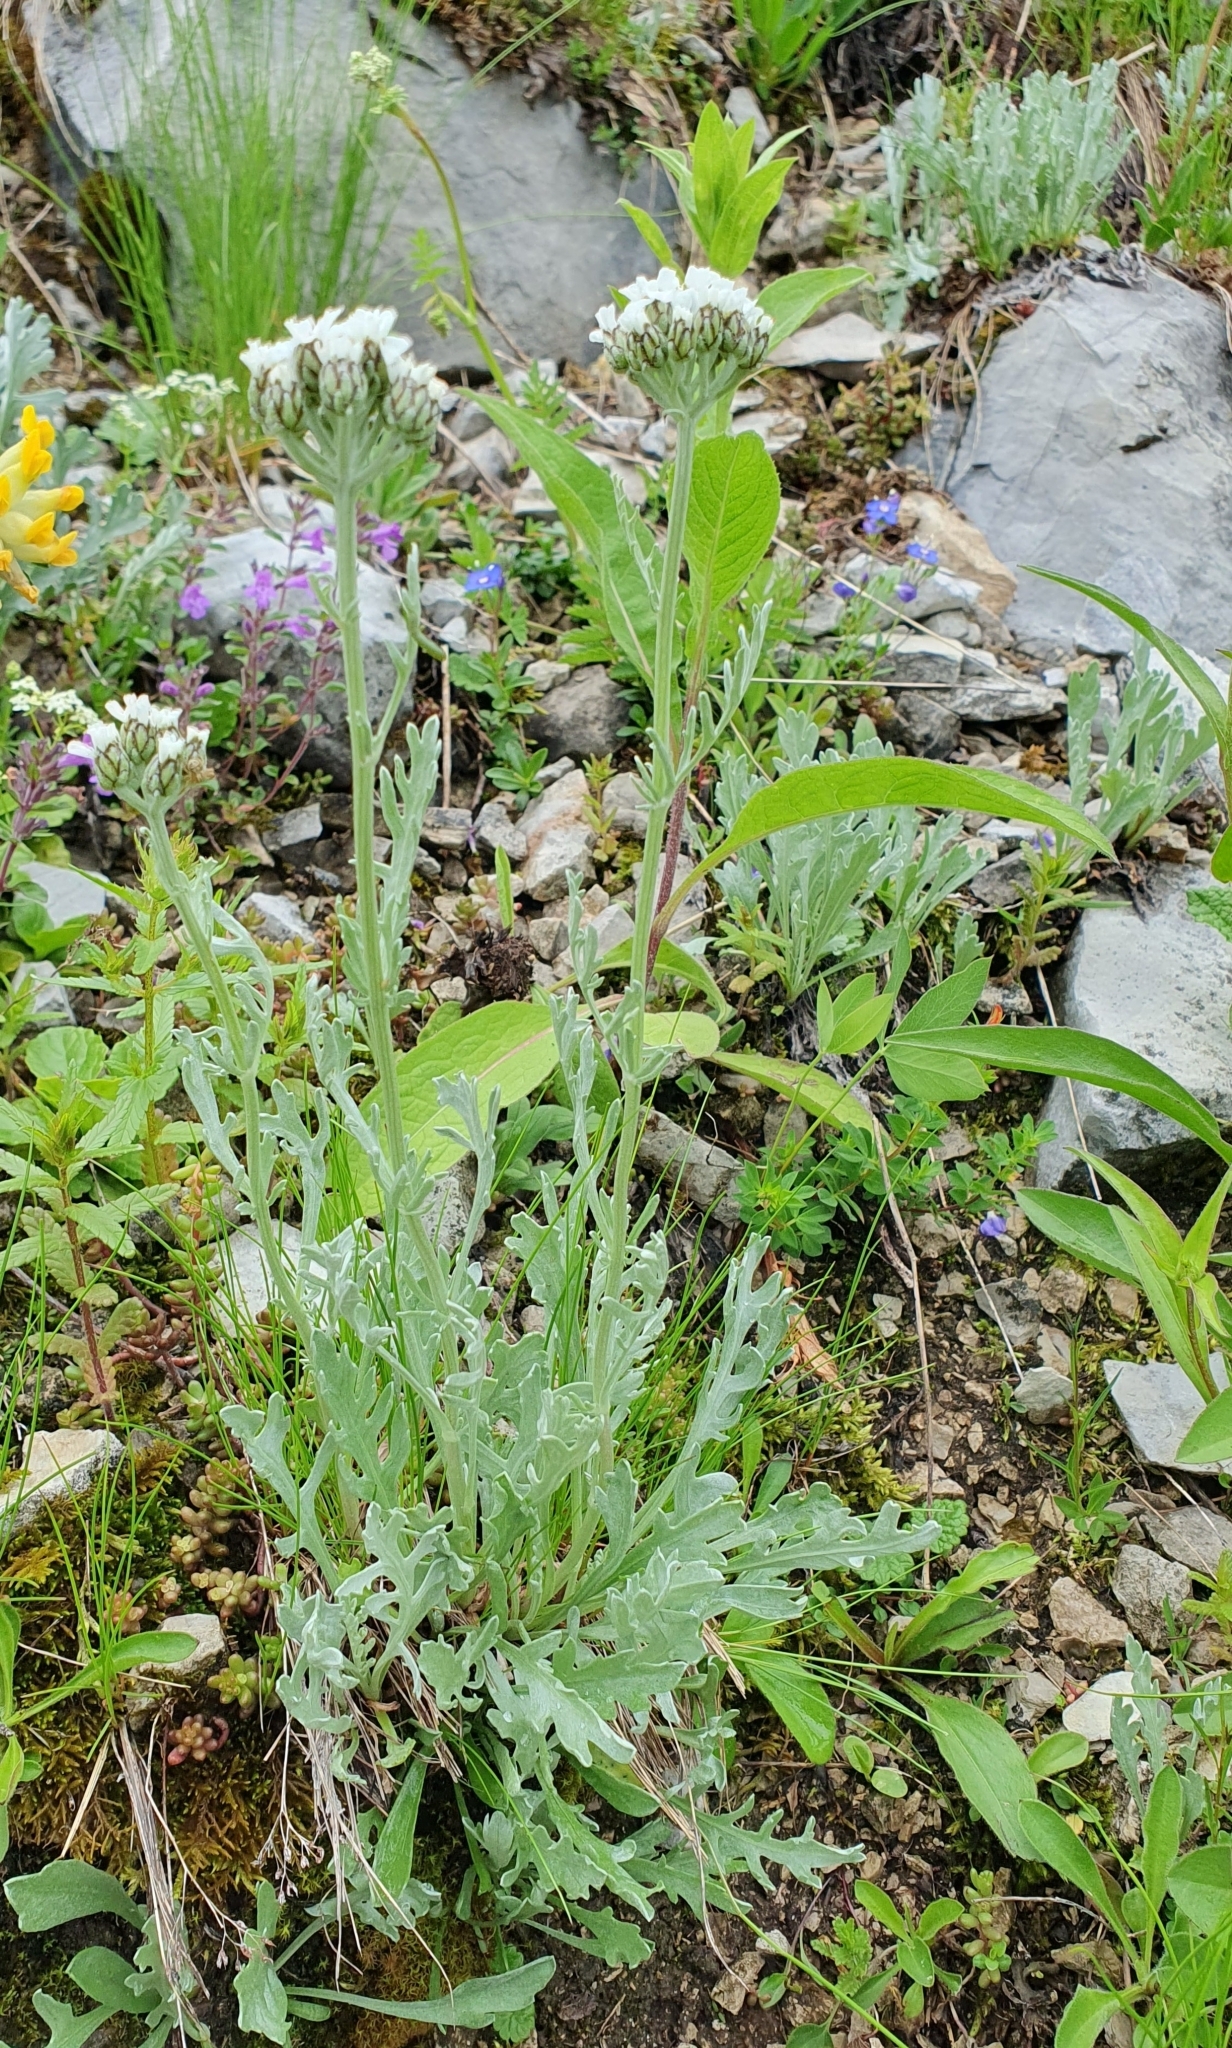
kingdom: Plantae
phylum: Tracheophyta
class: Magnoliopsida
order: Asterales
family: Asteraceae
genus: Achillea
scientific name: Achillea clavennae
